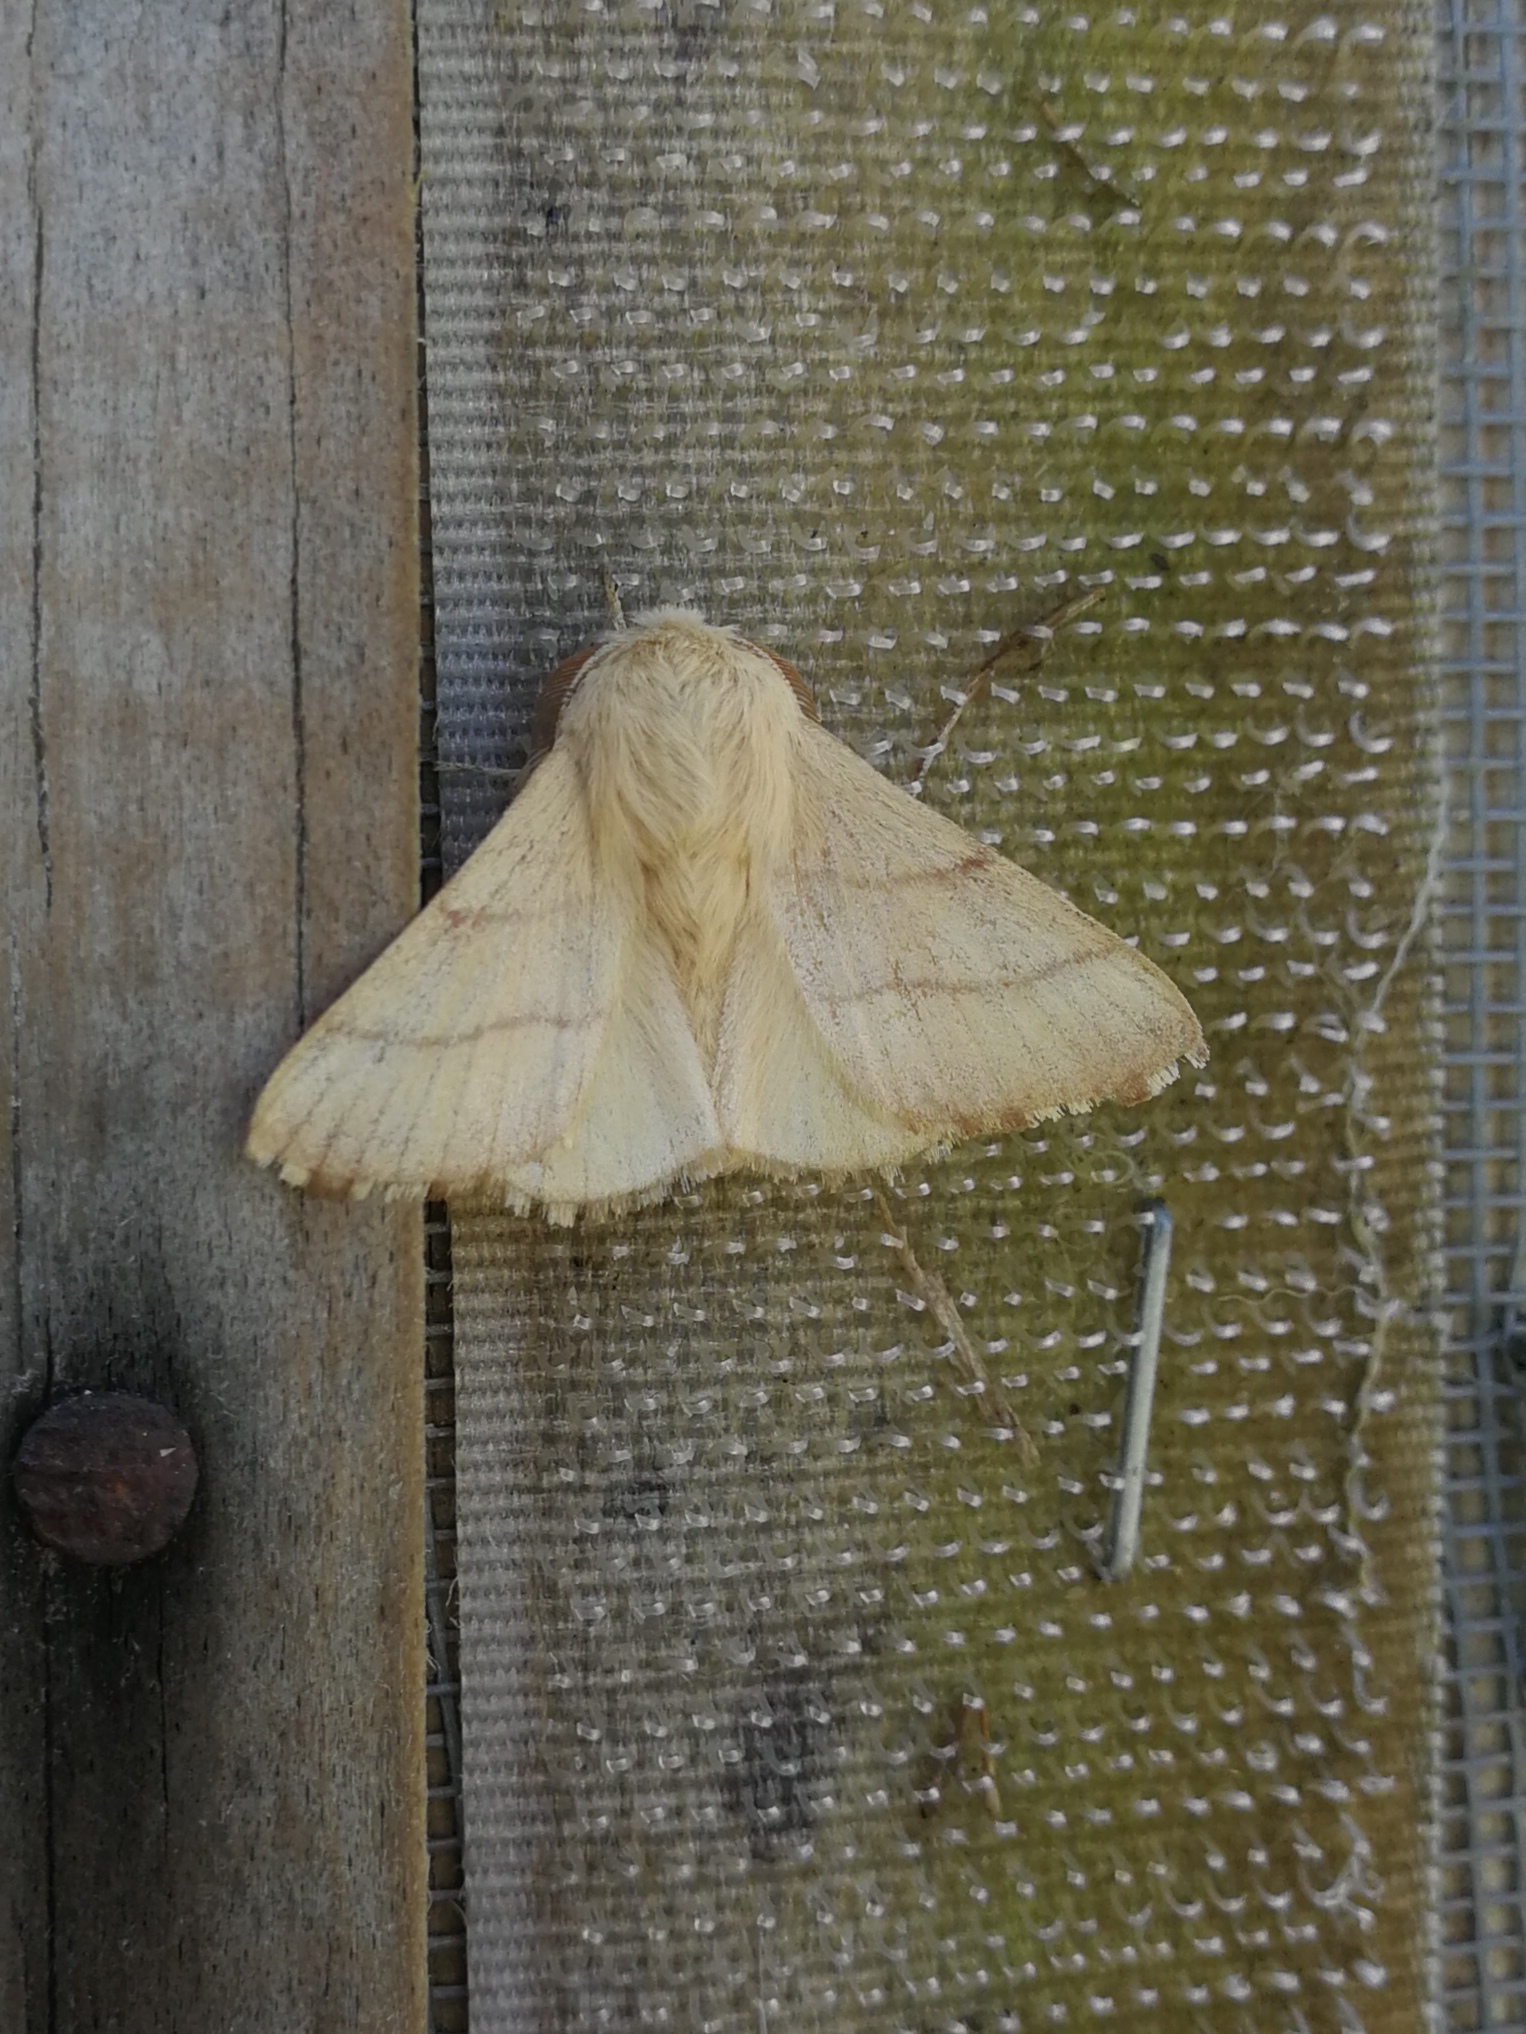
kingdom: Animalia
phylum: Arthropoda
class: Insecta
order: Lepidoptera
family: Lasiocampidae
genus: Malacosoma
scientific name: Malacosoma neustria
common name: The lackey
